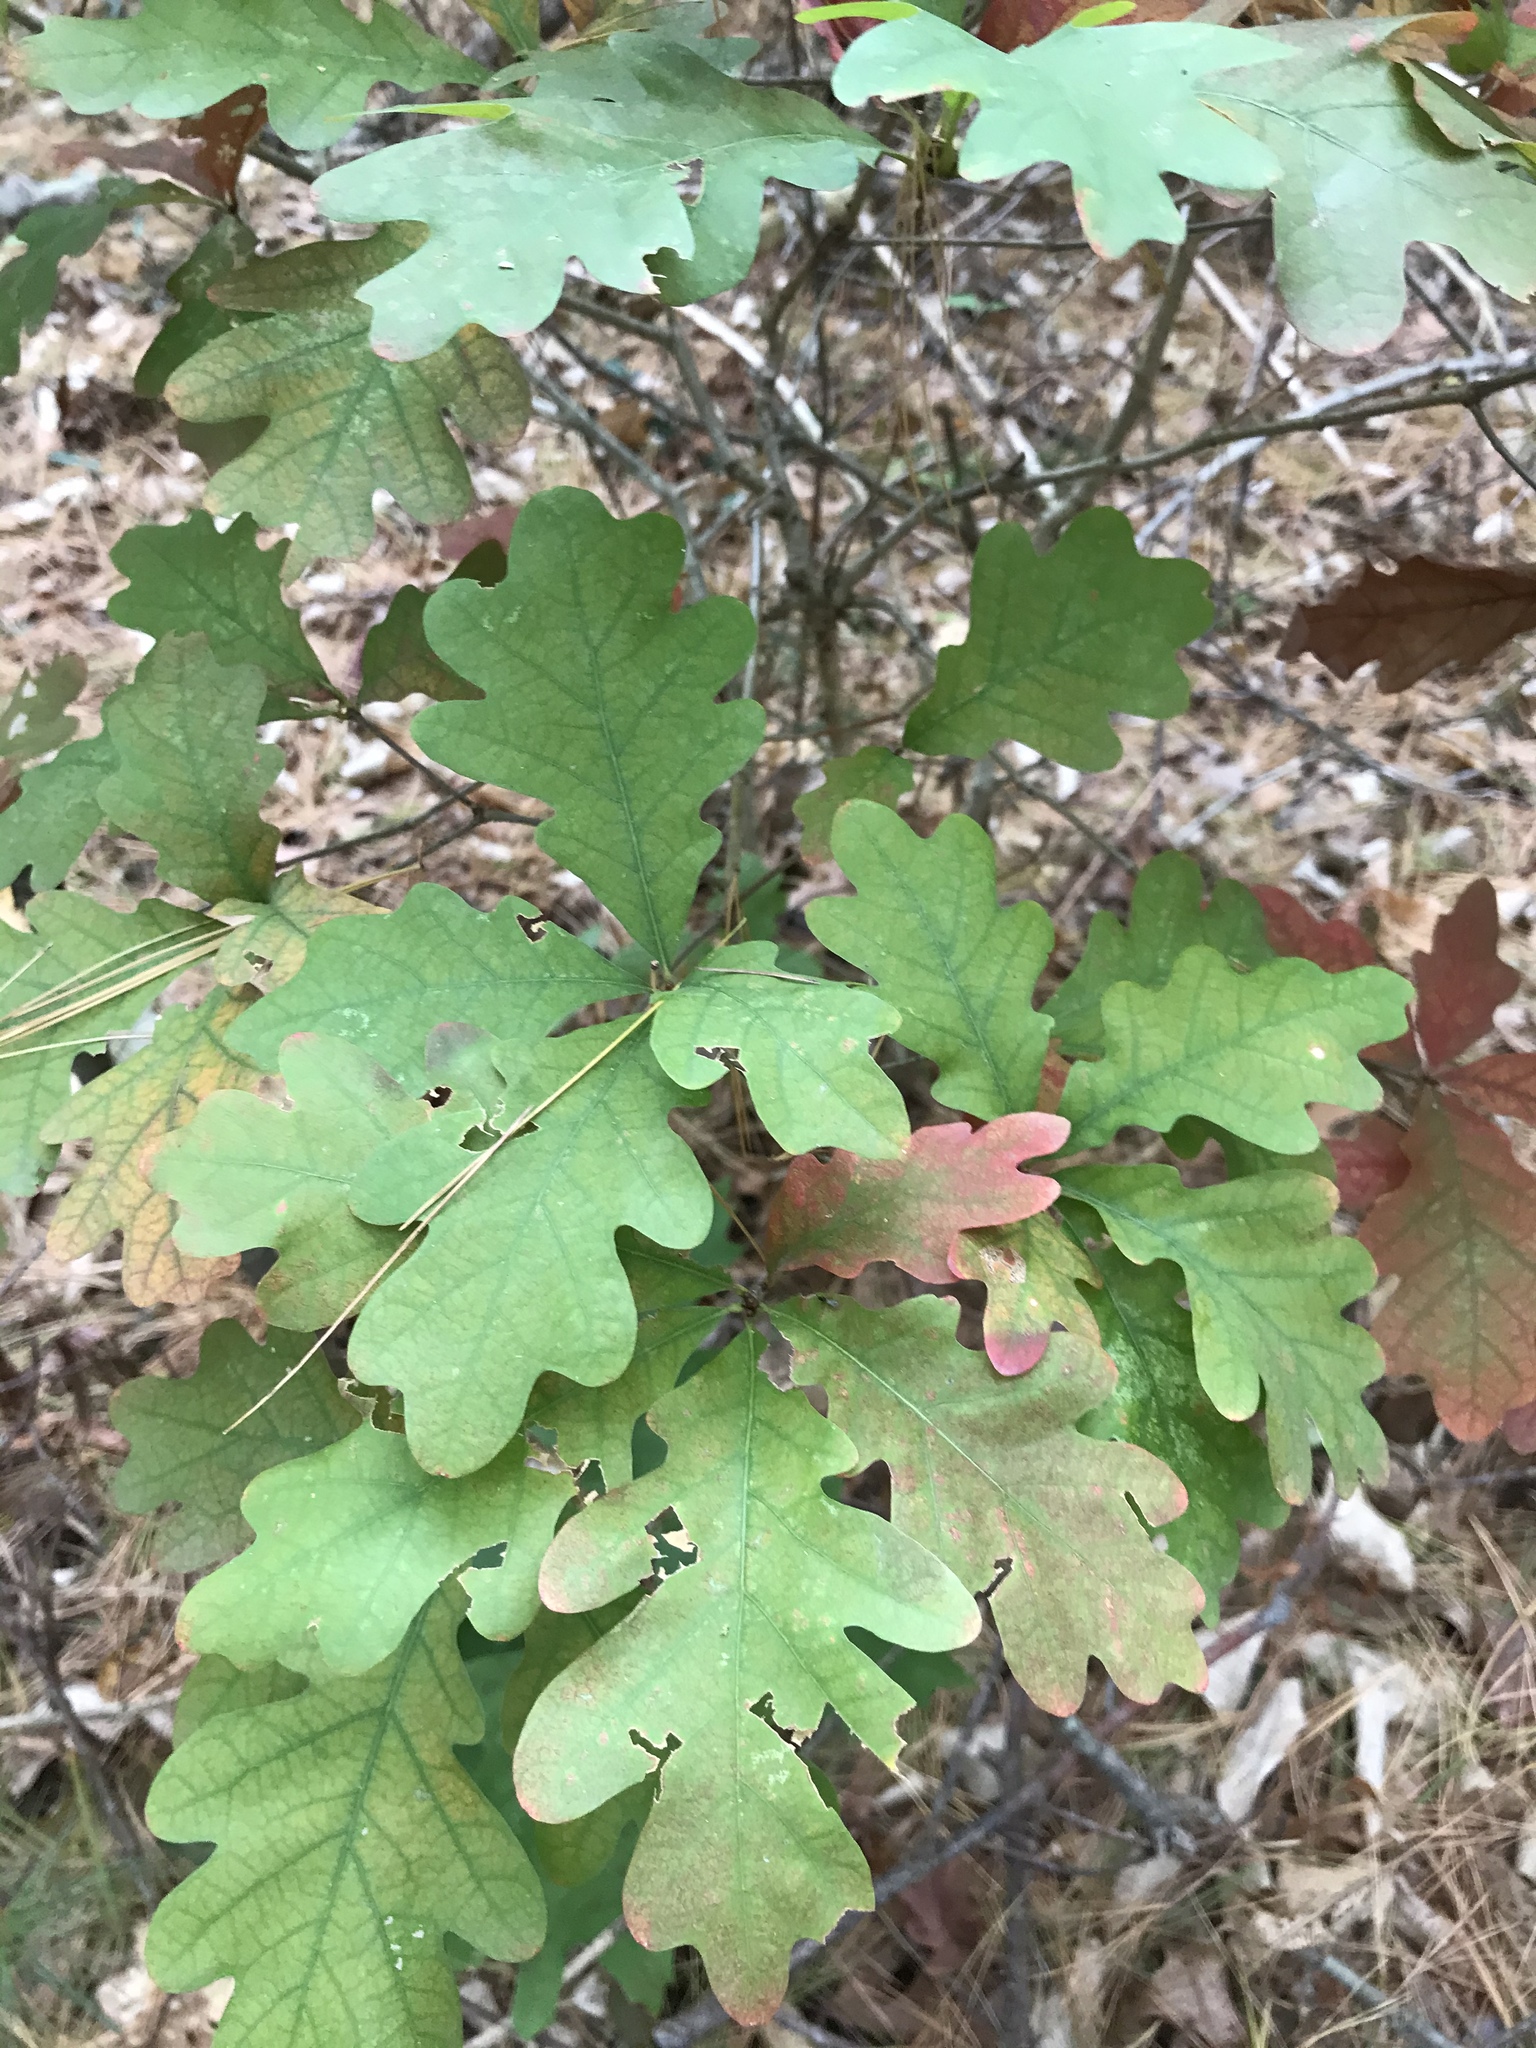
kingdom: Plantae
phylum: Tracheophyta
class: Magnoliopsida
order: Fagales
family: Fagaceae
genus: Quercus
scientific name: Quercus alba
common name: White oak
